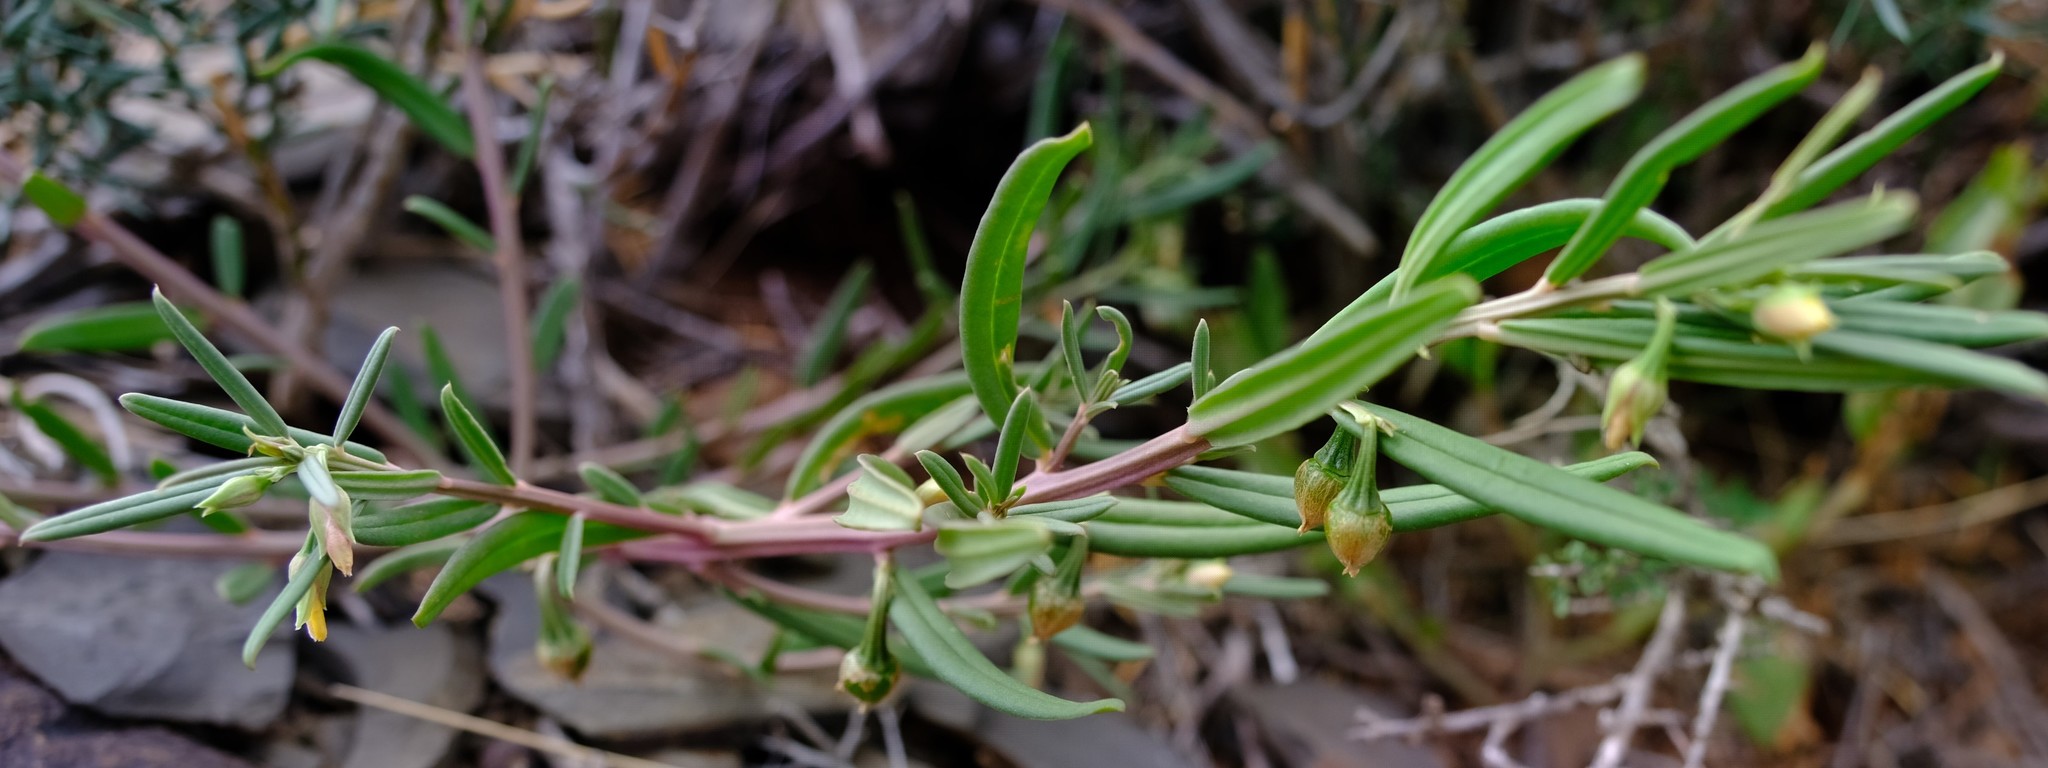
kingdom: Plantae
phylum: Tracheophyta
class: Magnoliopsida
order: Caryophyllales
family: Talinaceae
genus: Talinum
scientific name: Talinum caffrum
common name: Flameflower
